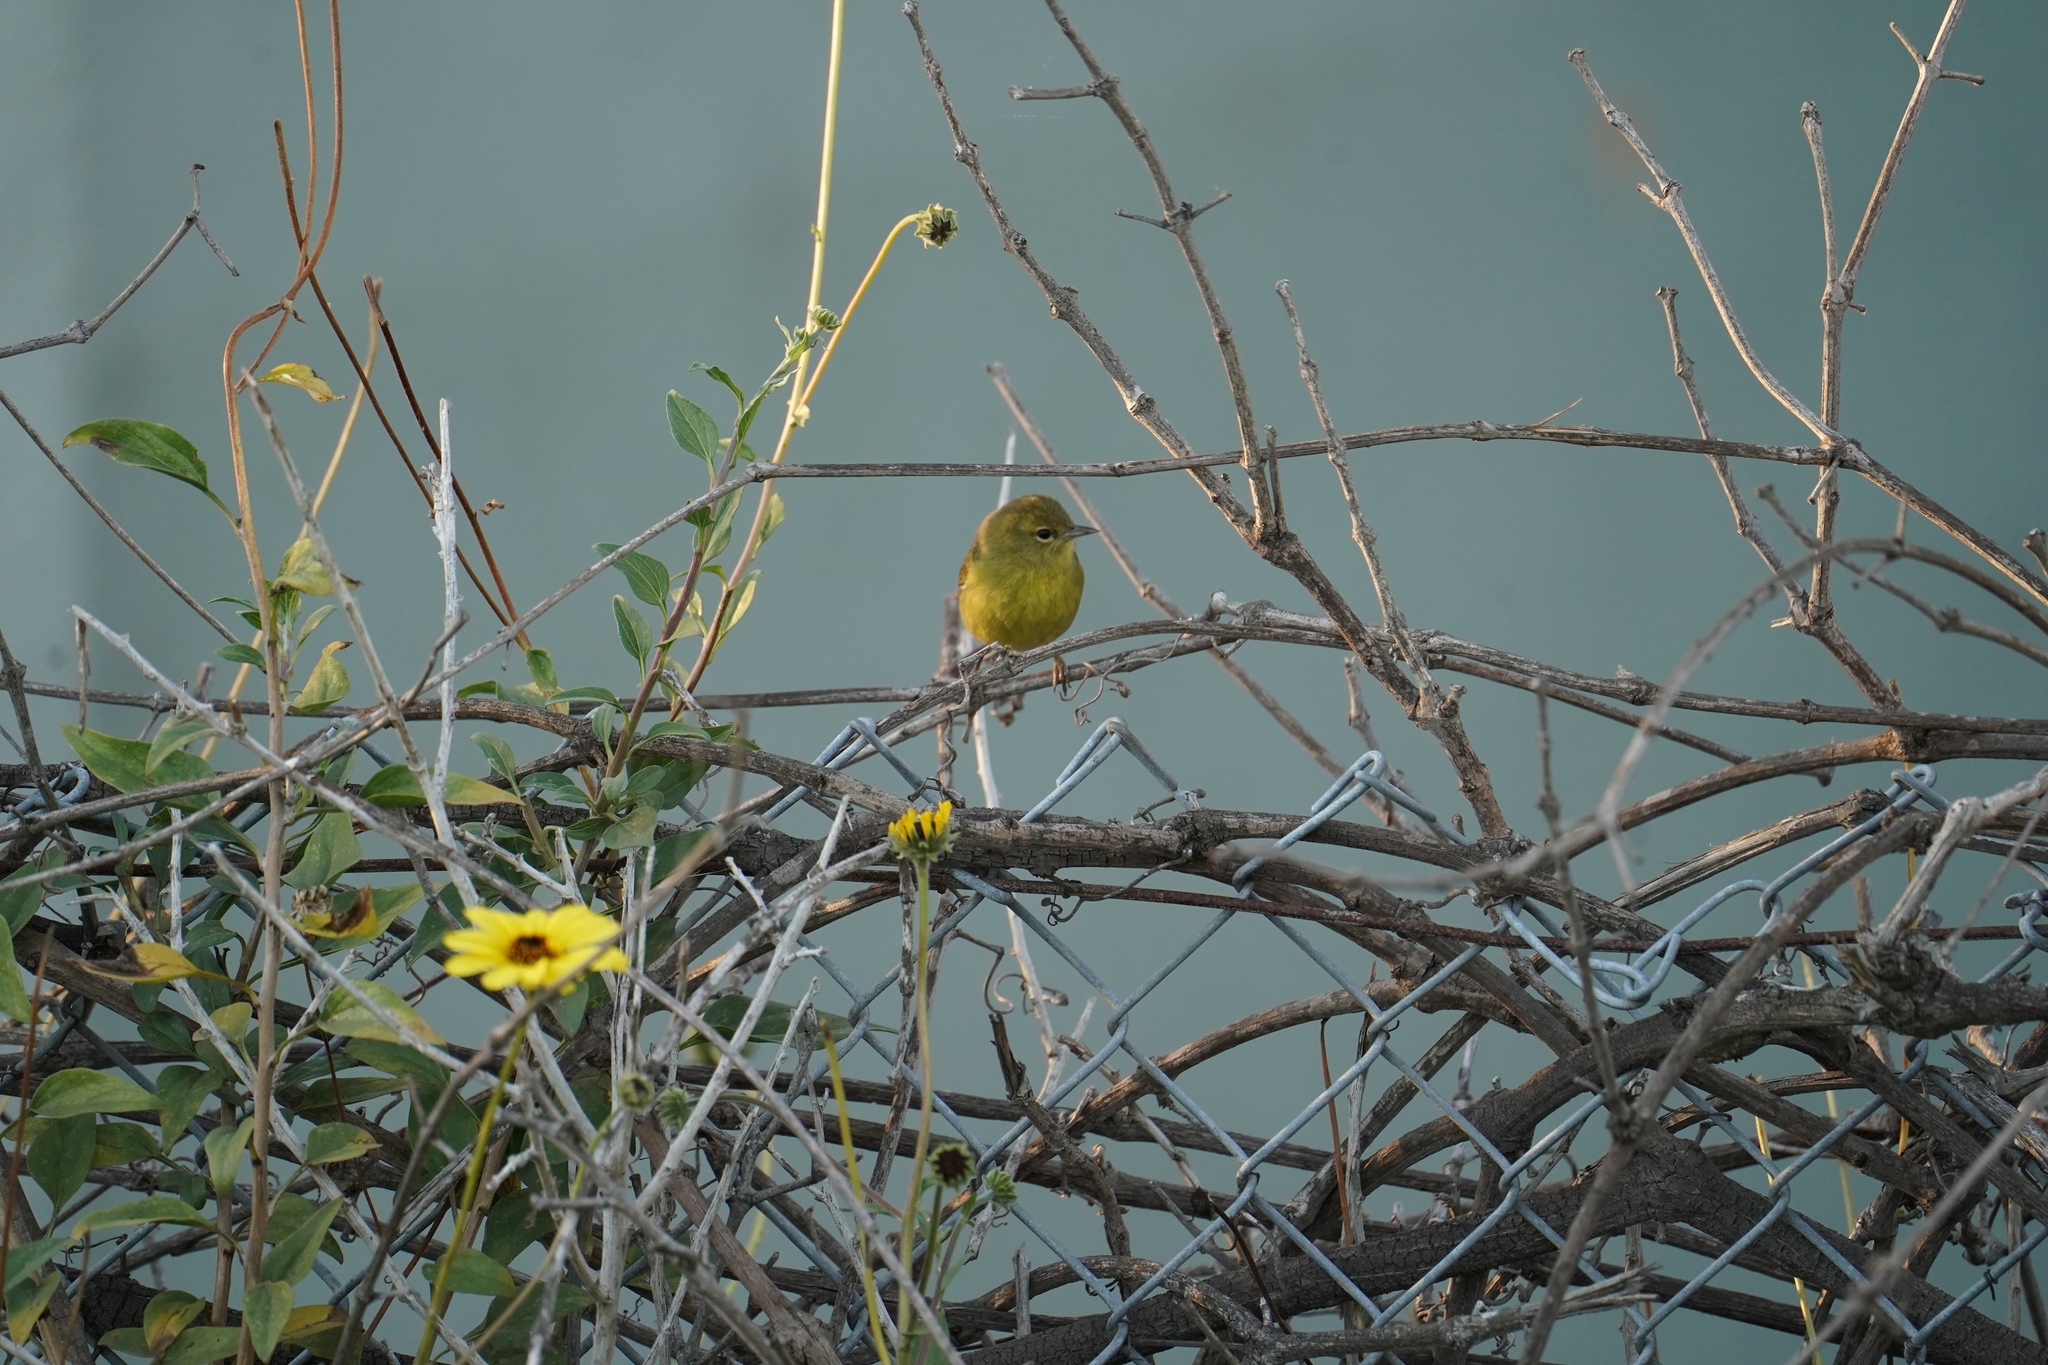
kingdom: Animalia
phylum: Chordata
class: Aves
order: Passeriformes
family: Parulidae
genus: Leiothlypis
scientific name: Leiothlypis celata
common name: Orange-crowned warbler
